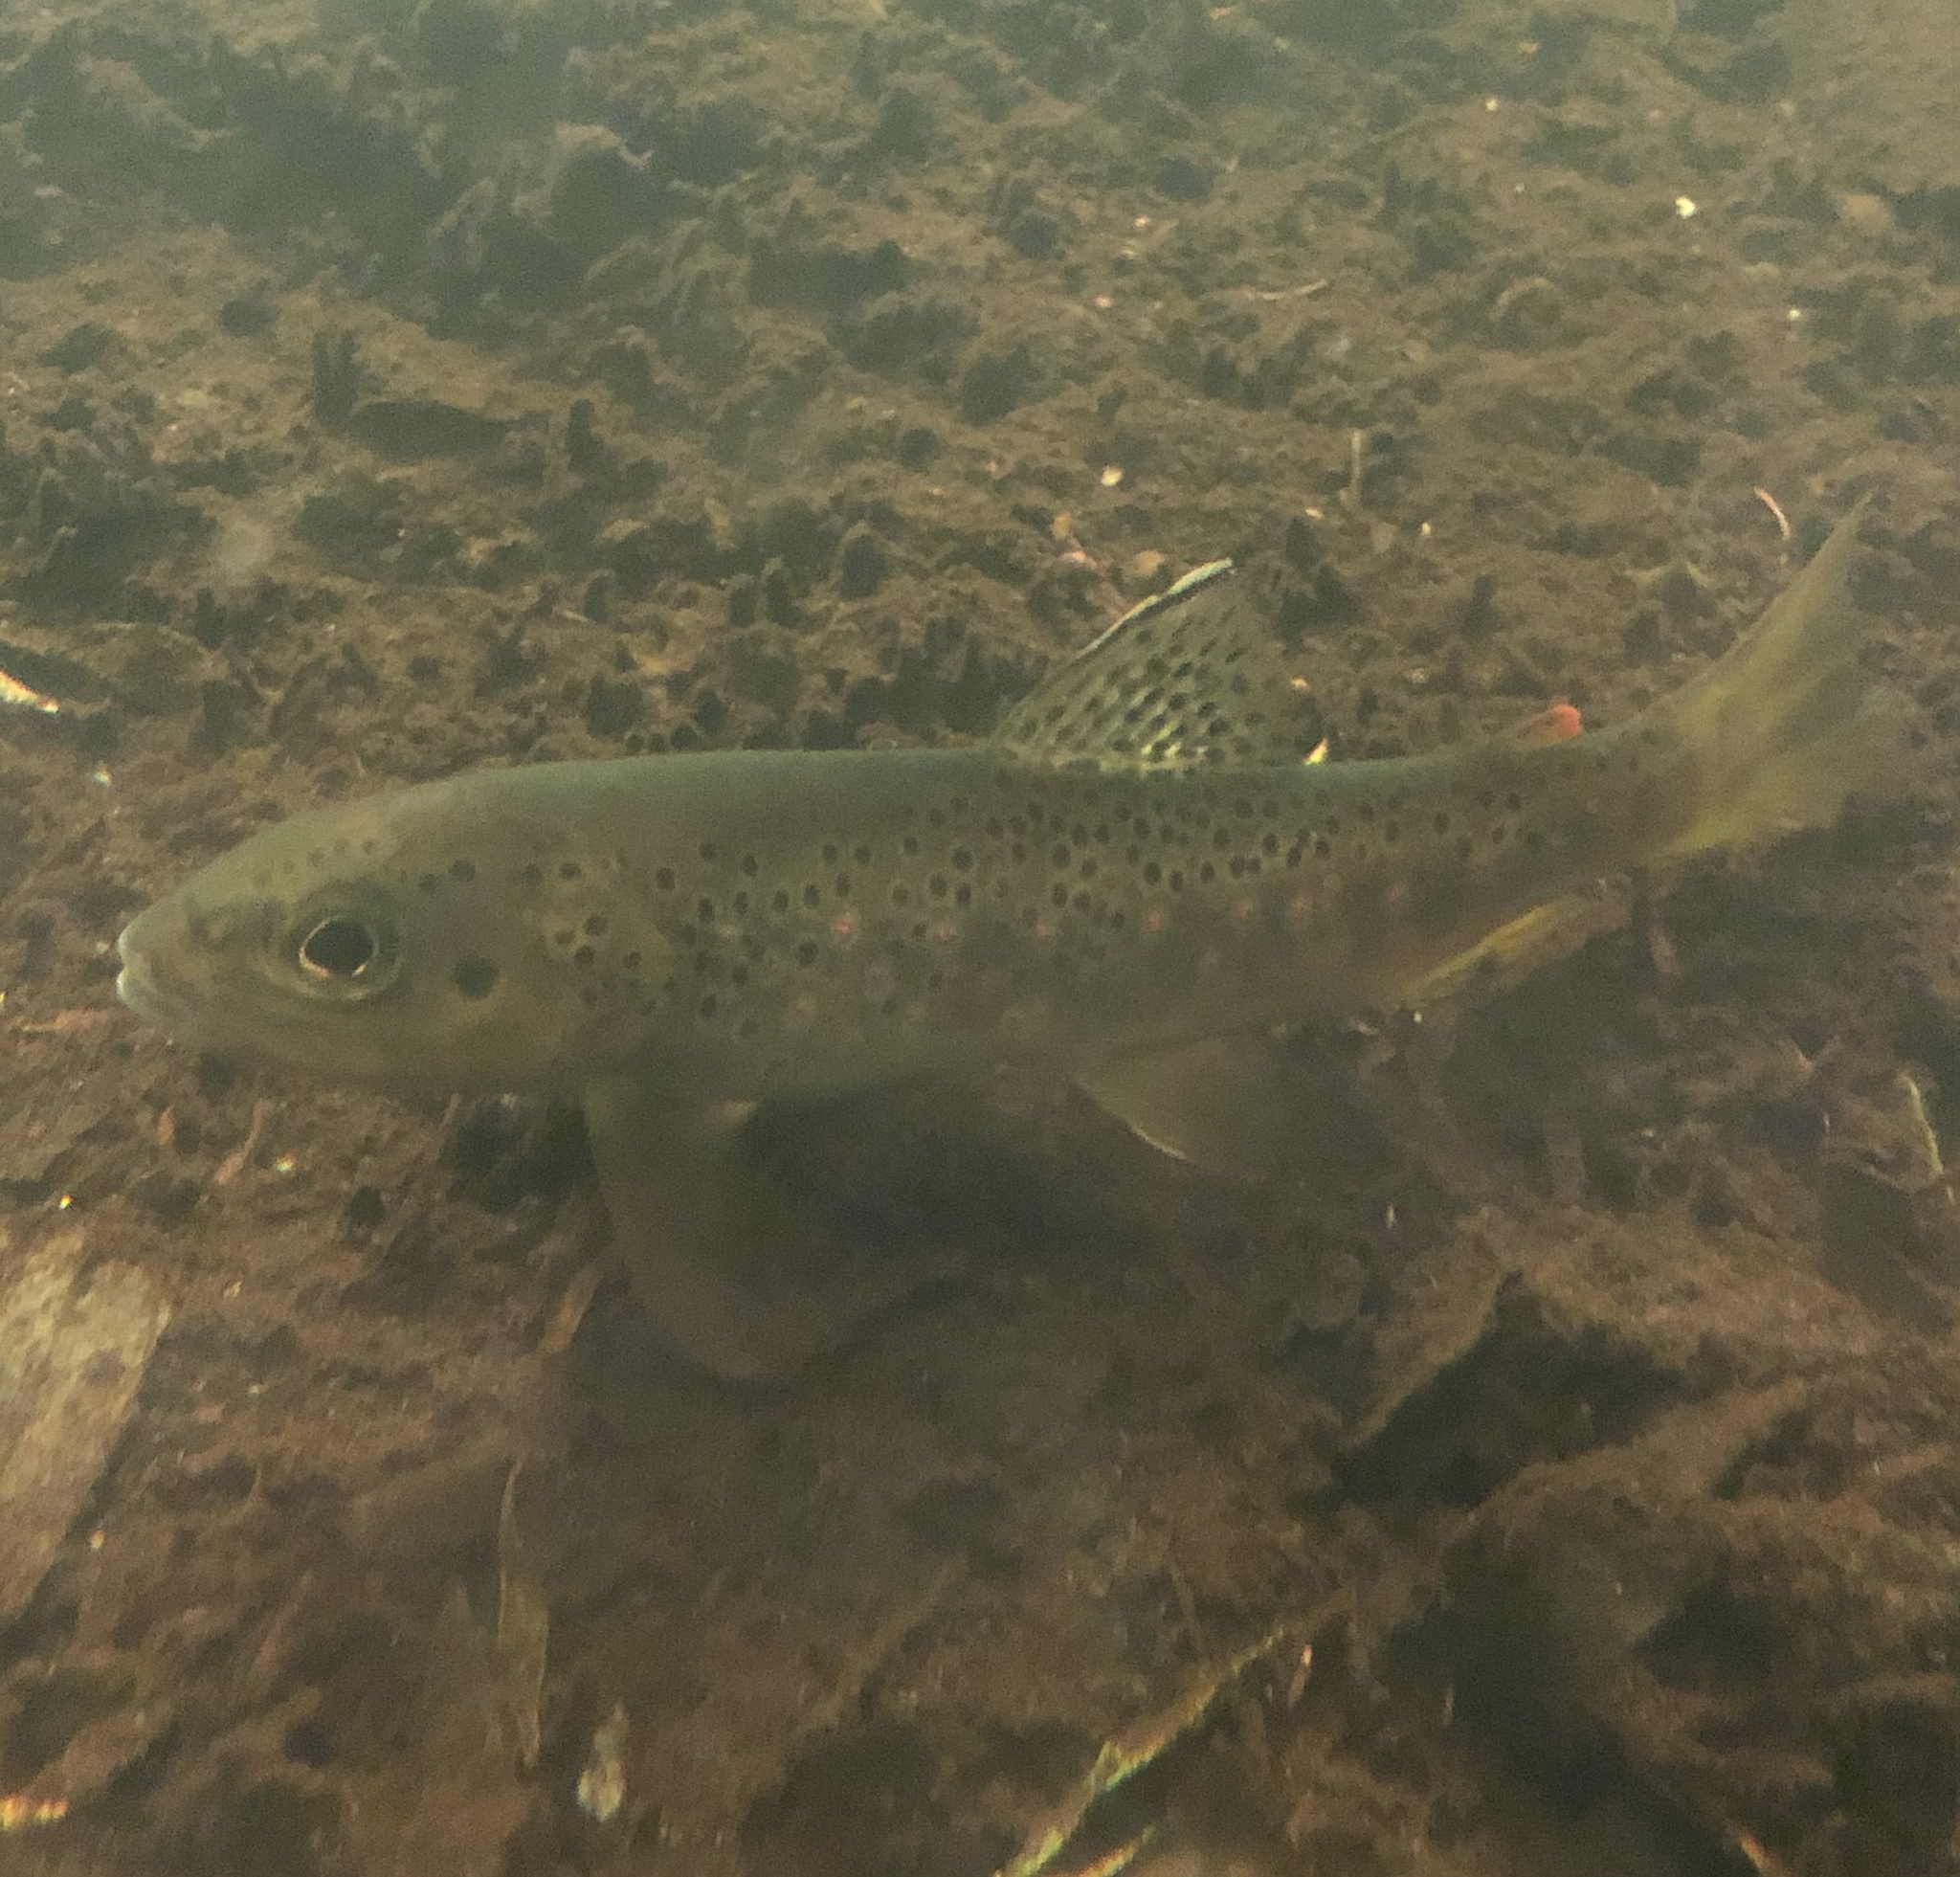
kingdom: Animalia
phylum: Chordata
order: Salmoniformes
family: Salmonidae
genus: Salmo
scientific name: Salmo trutta
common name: Brown trout
